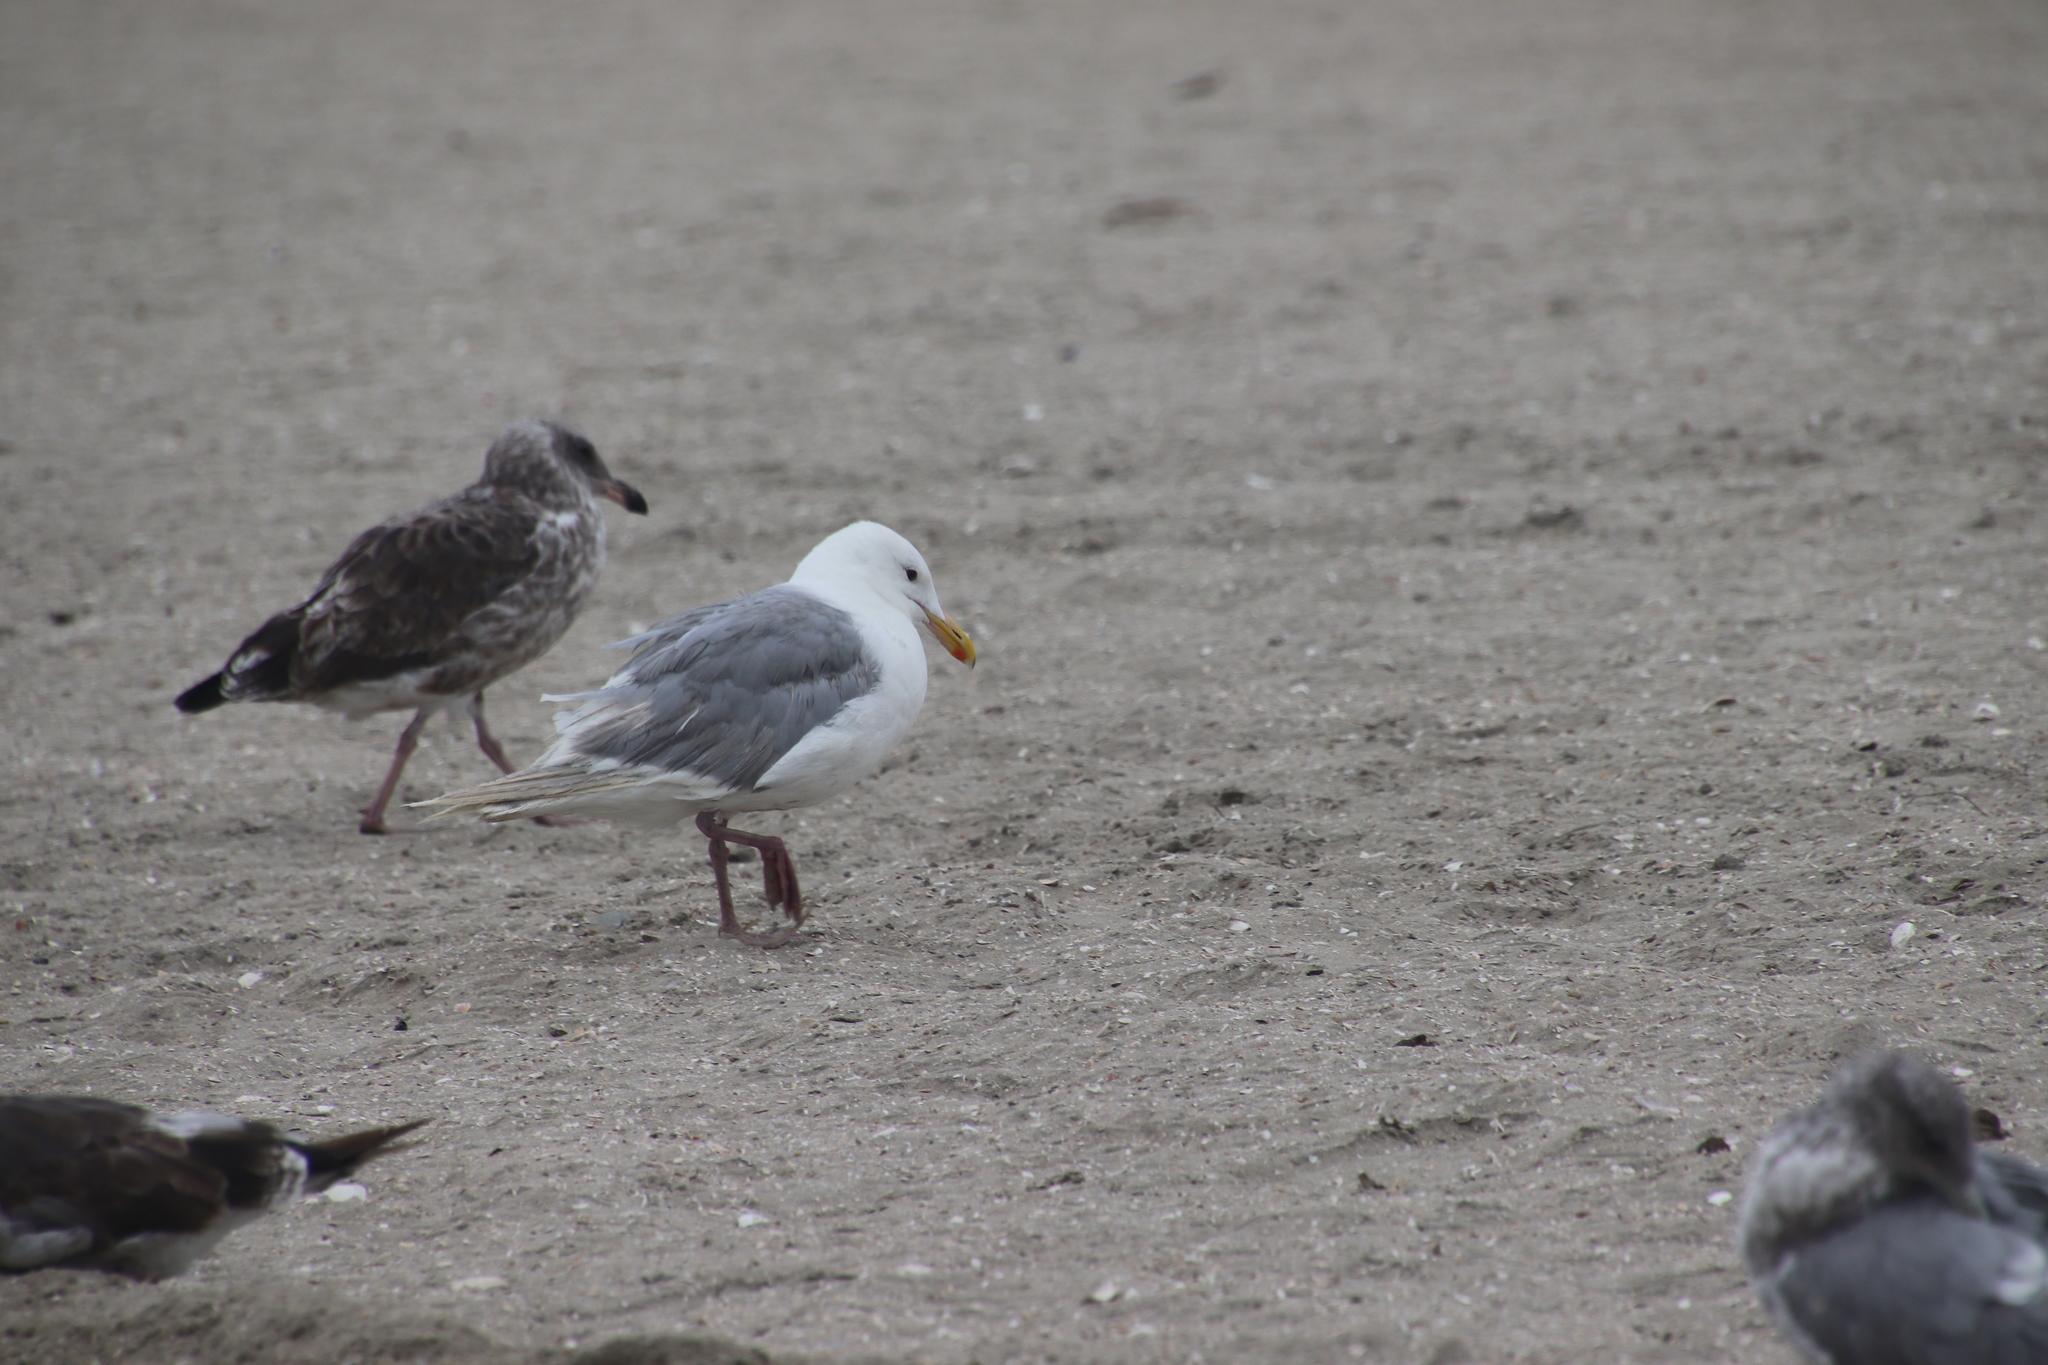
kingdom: Animalia
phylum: Chordata
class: Aves
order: Charadriiformes
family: Laridae
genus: Larus
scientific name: Larus glaucescens
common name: Glaucous-winged gull
